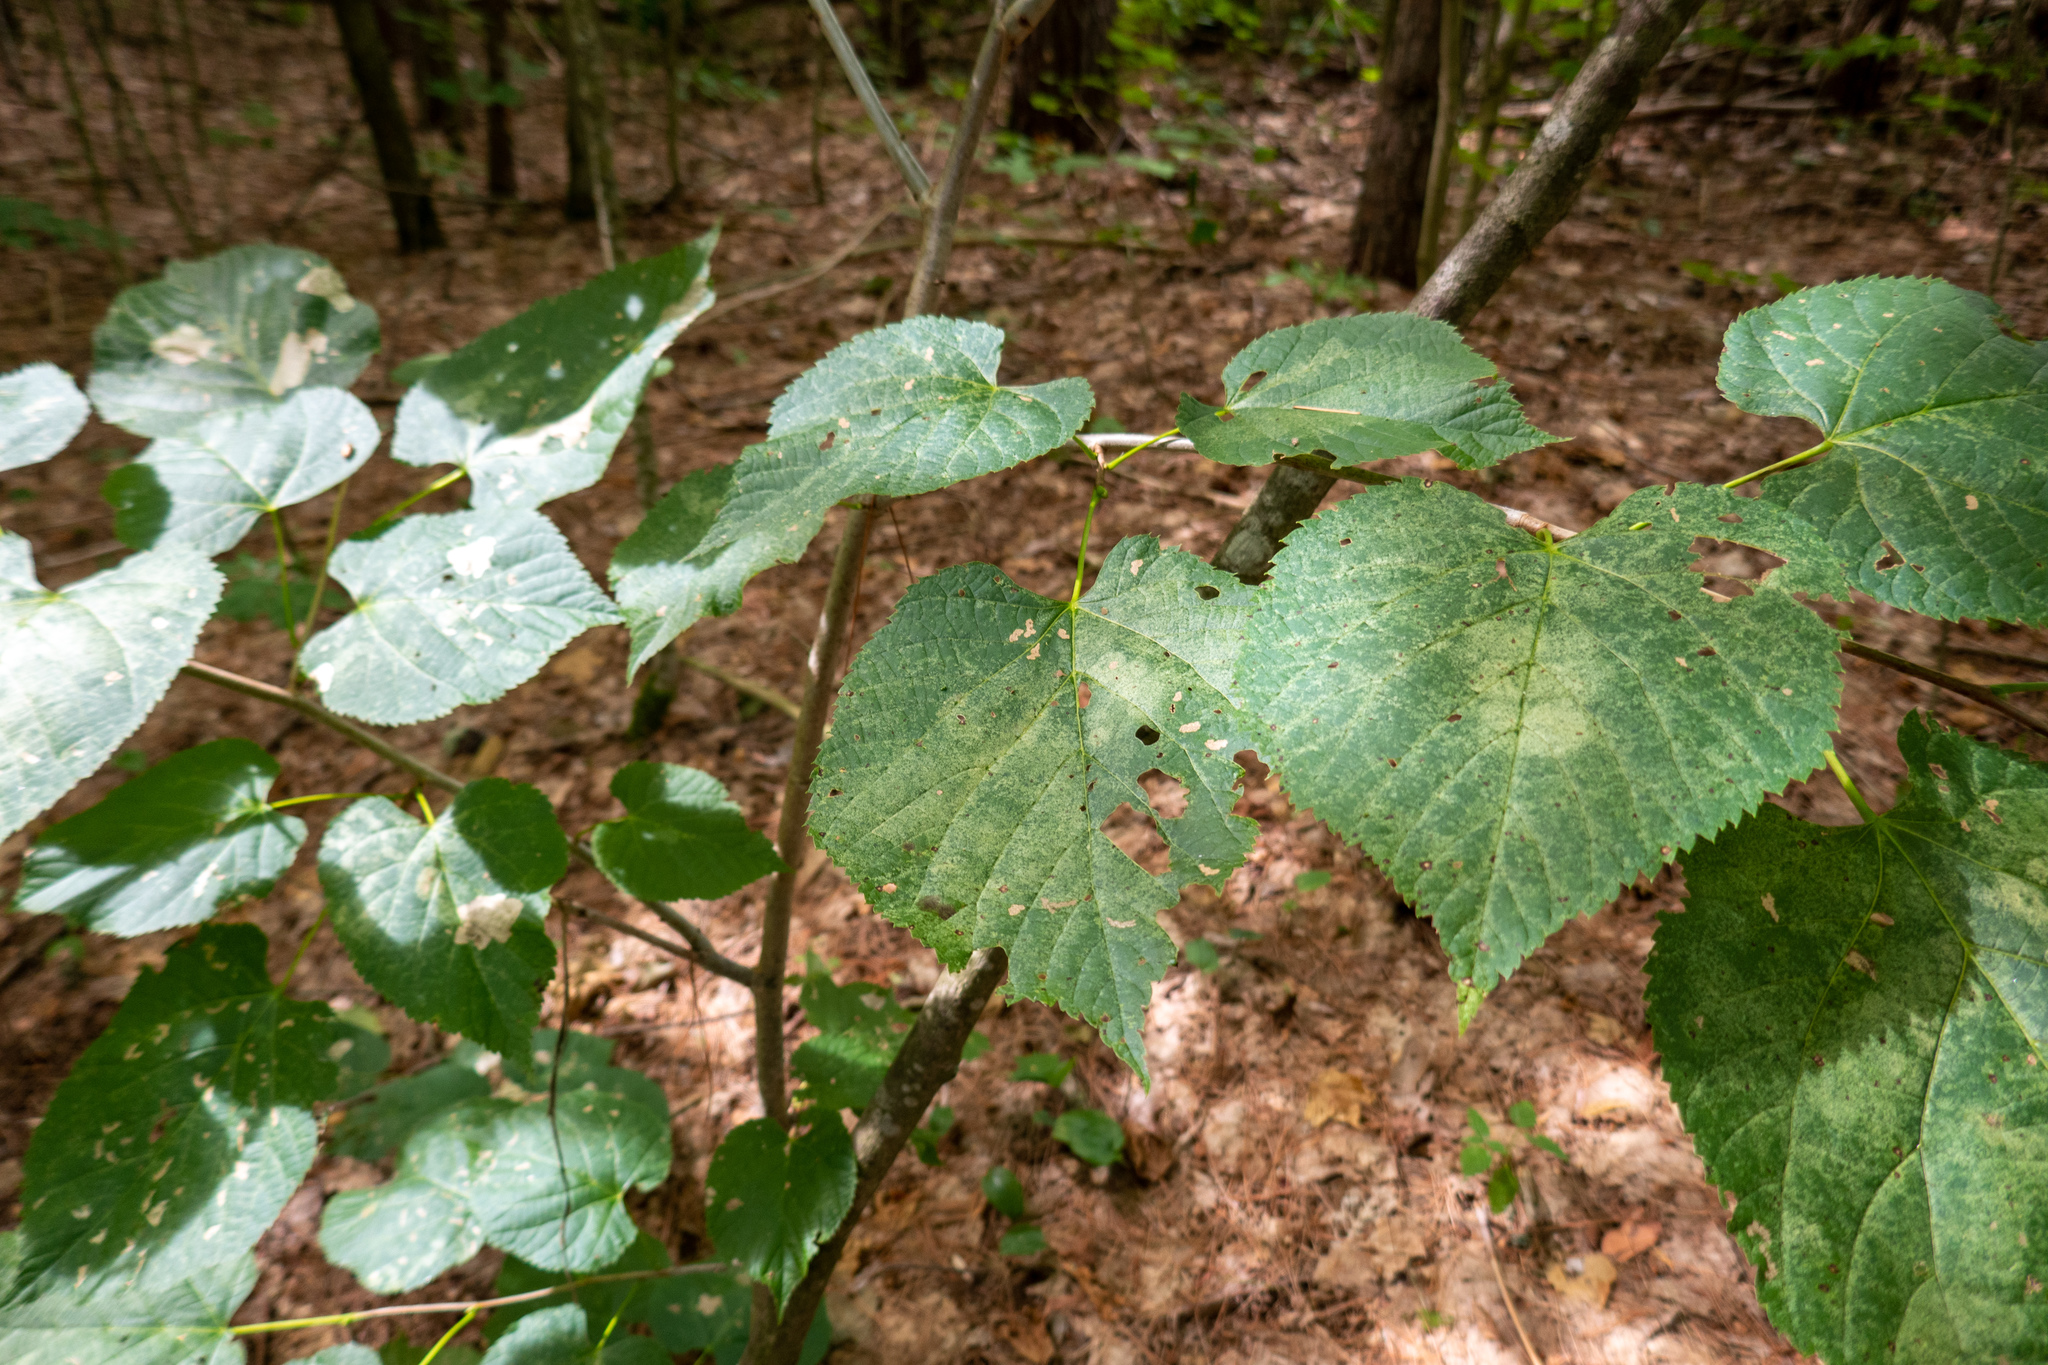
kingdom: Plantae
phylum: Tracheophyta
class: Magnoliopsida
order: Malvales
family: Malvaceae
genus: Tilia
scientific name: Tilia americana
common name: Basswood
